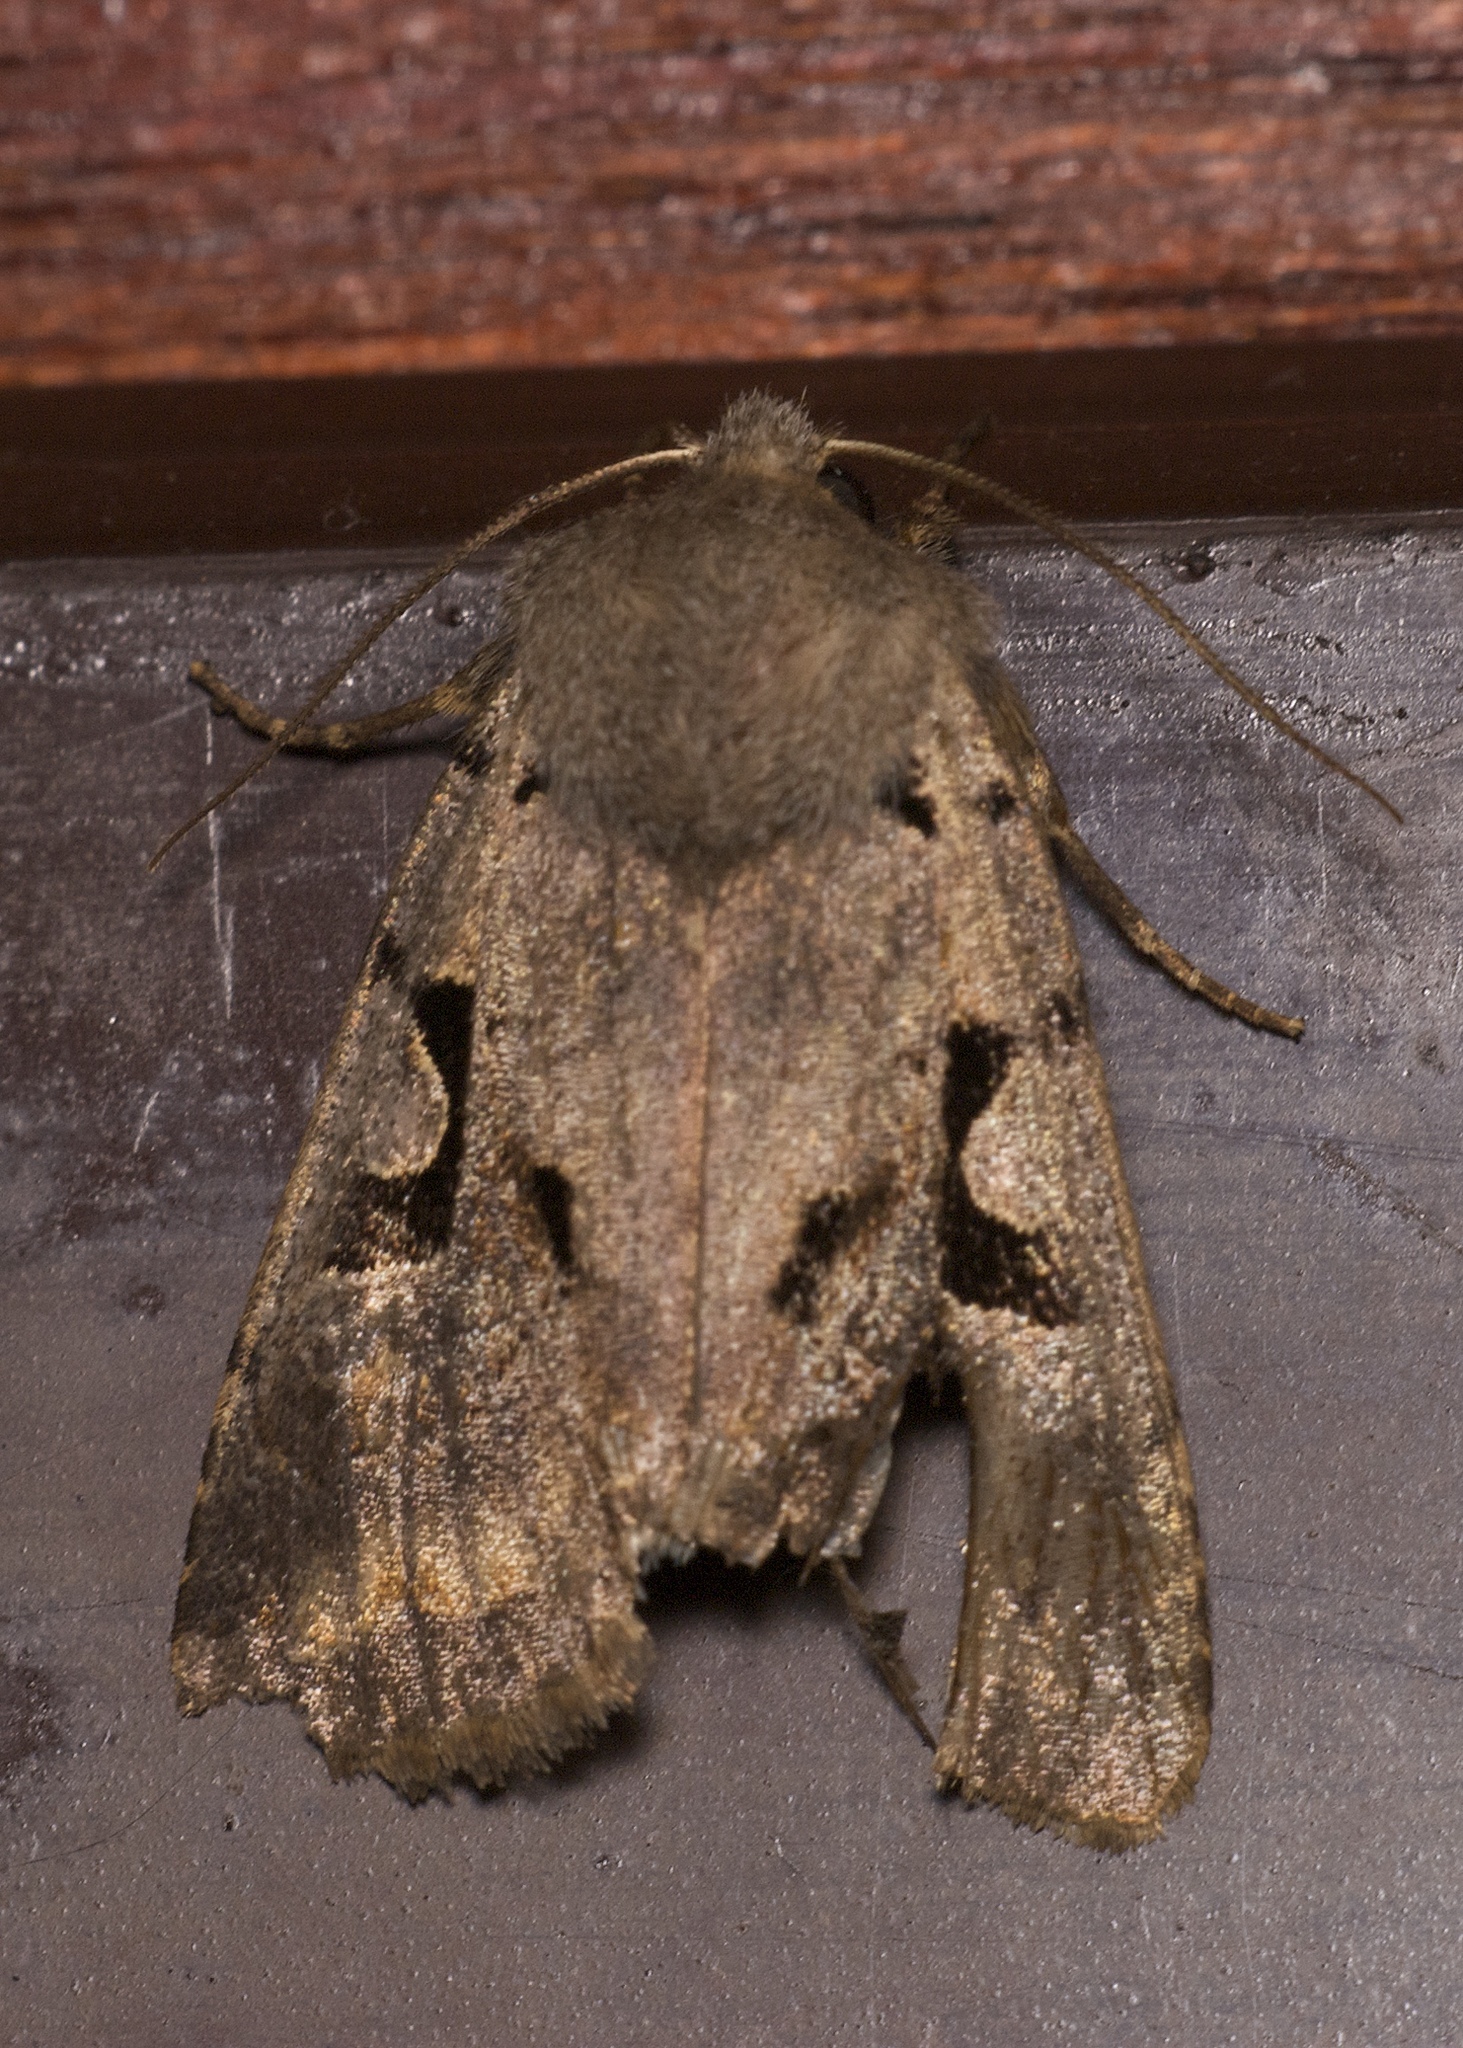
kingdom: Animalia
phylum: Arthropoda
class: Insecta
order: Lepidoptera
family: Noctuidae
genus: Orthosia
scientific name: Orthosia gothica
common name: Hebrew character
